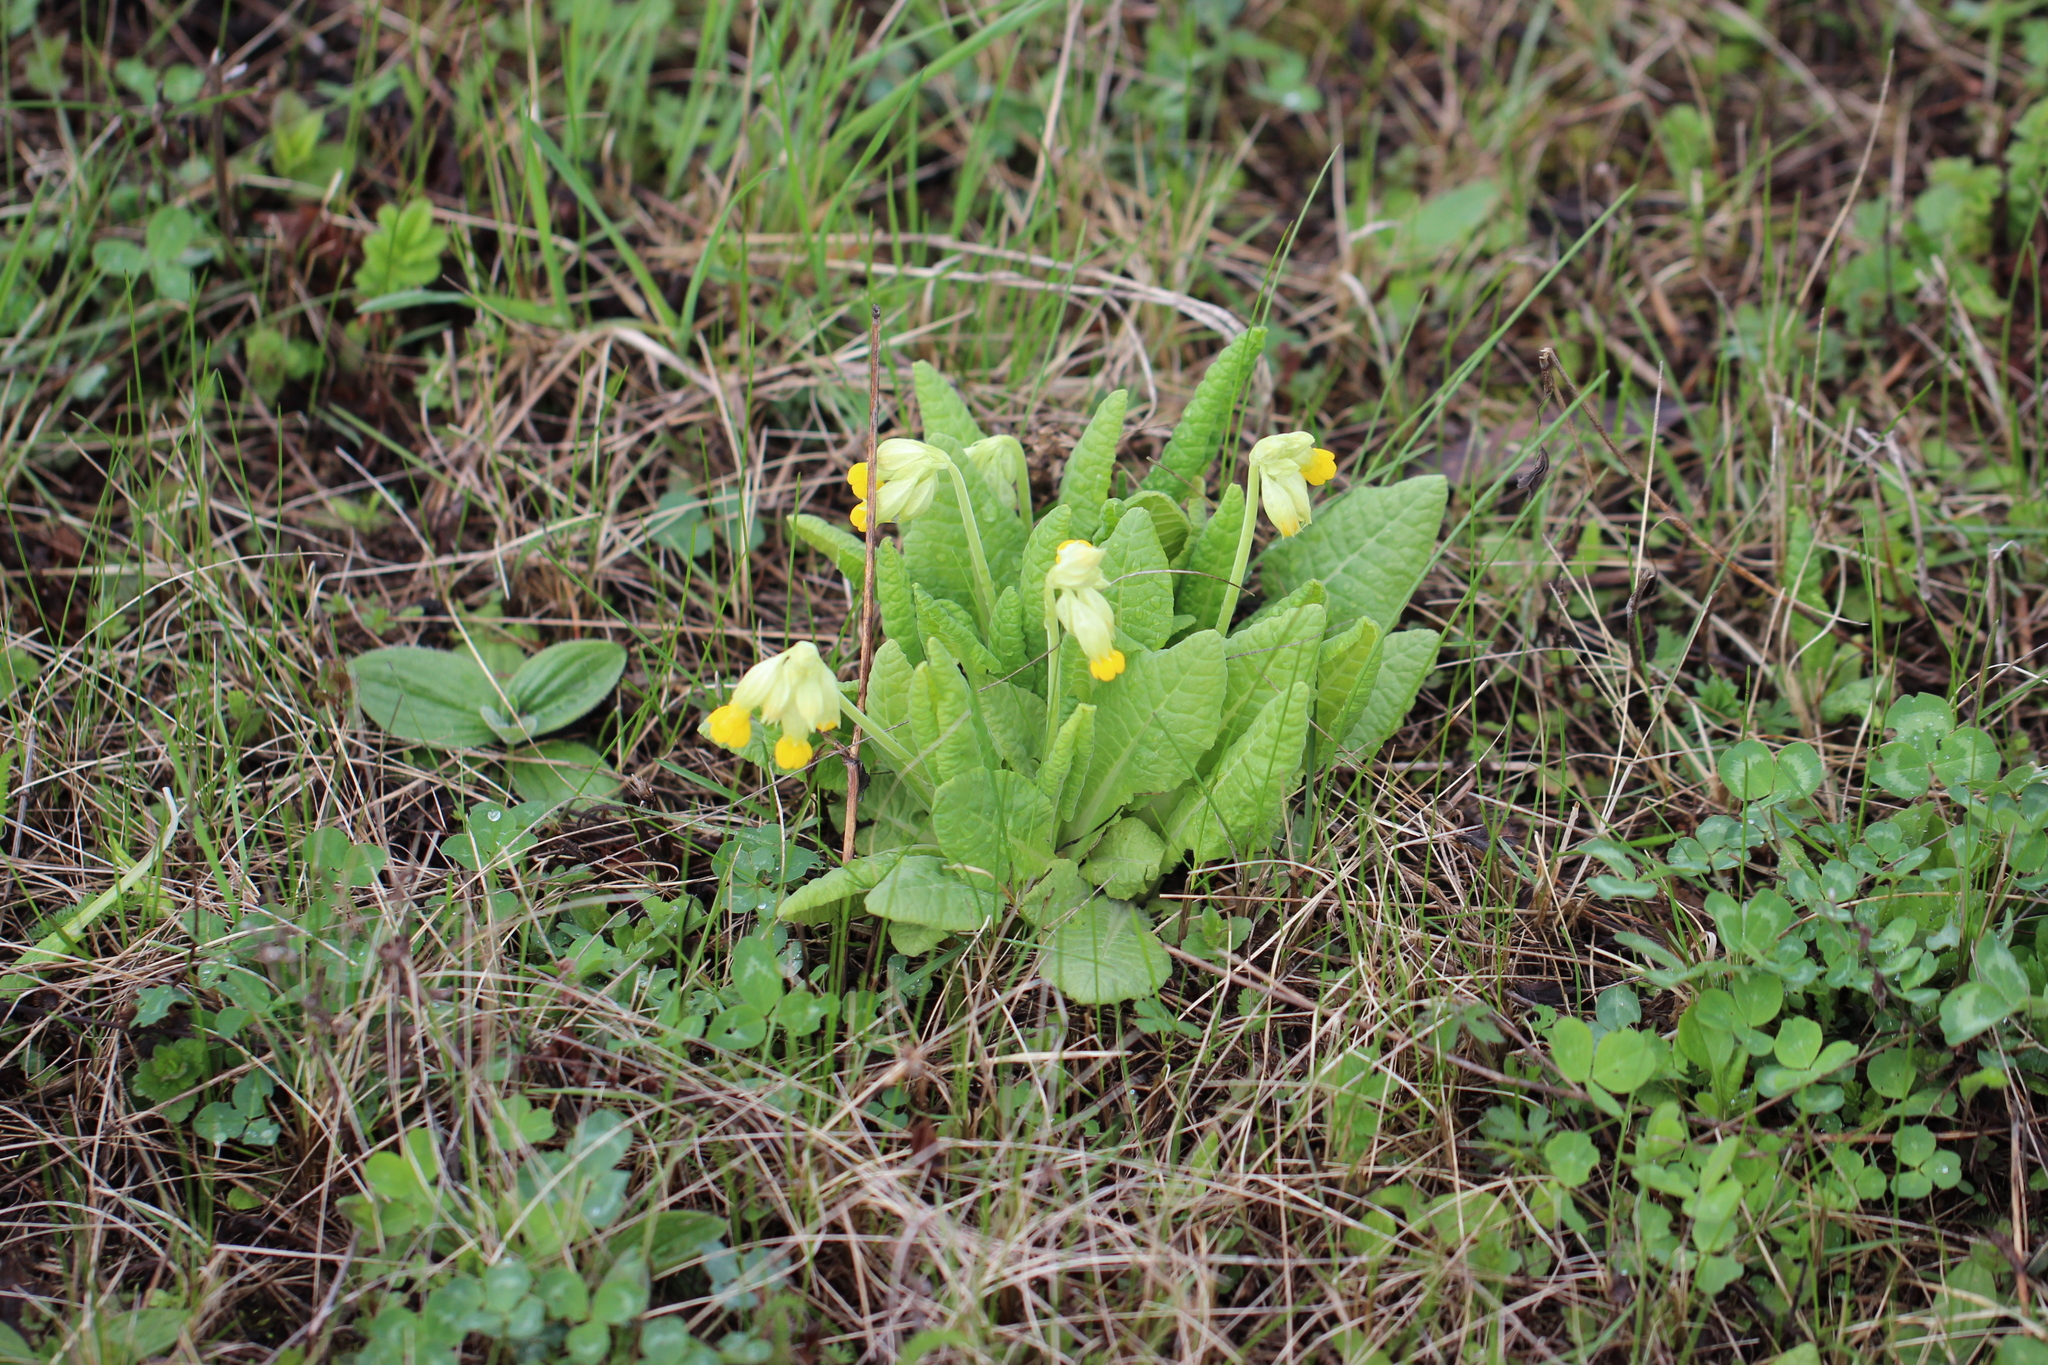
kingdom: Plantae
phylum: Tracheophyta
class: Magnoliopsida
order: Ericales
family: Primulaceae
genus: Primula
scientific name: Primula veris
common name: Cowslip
